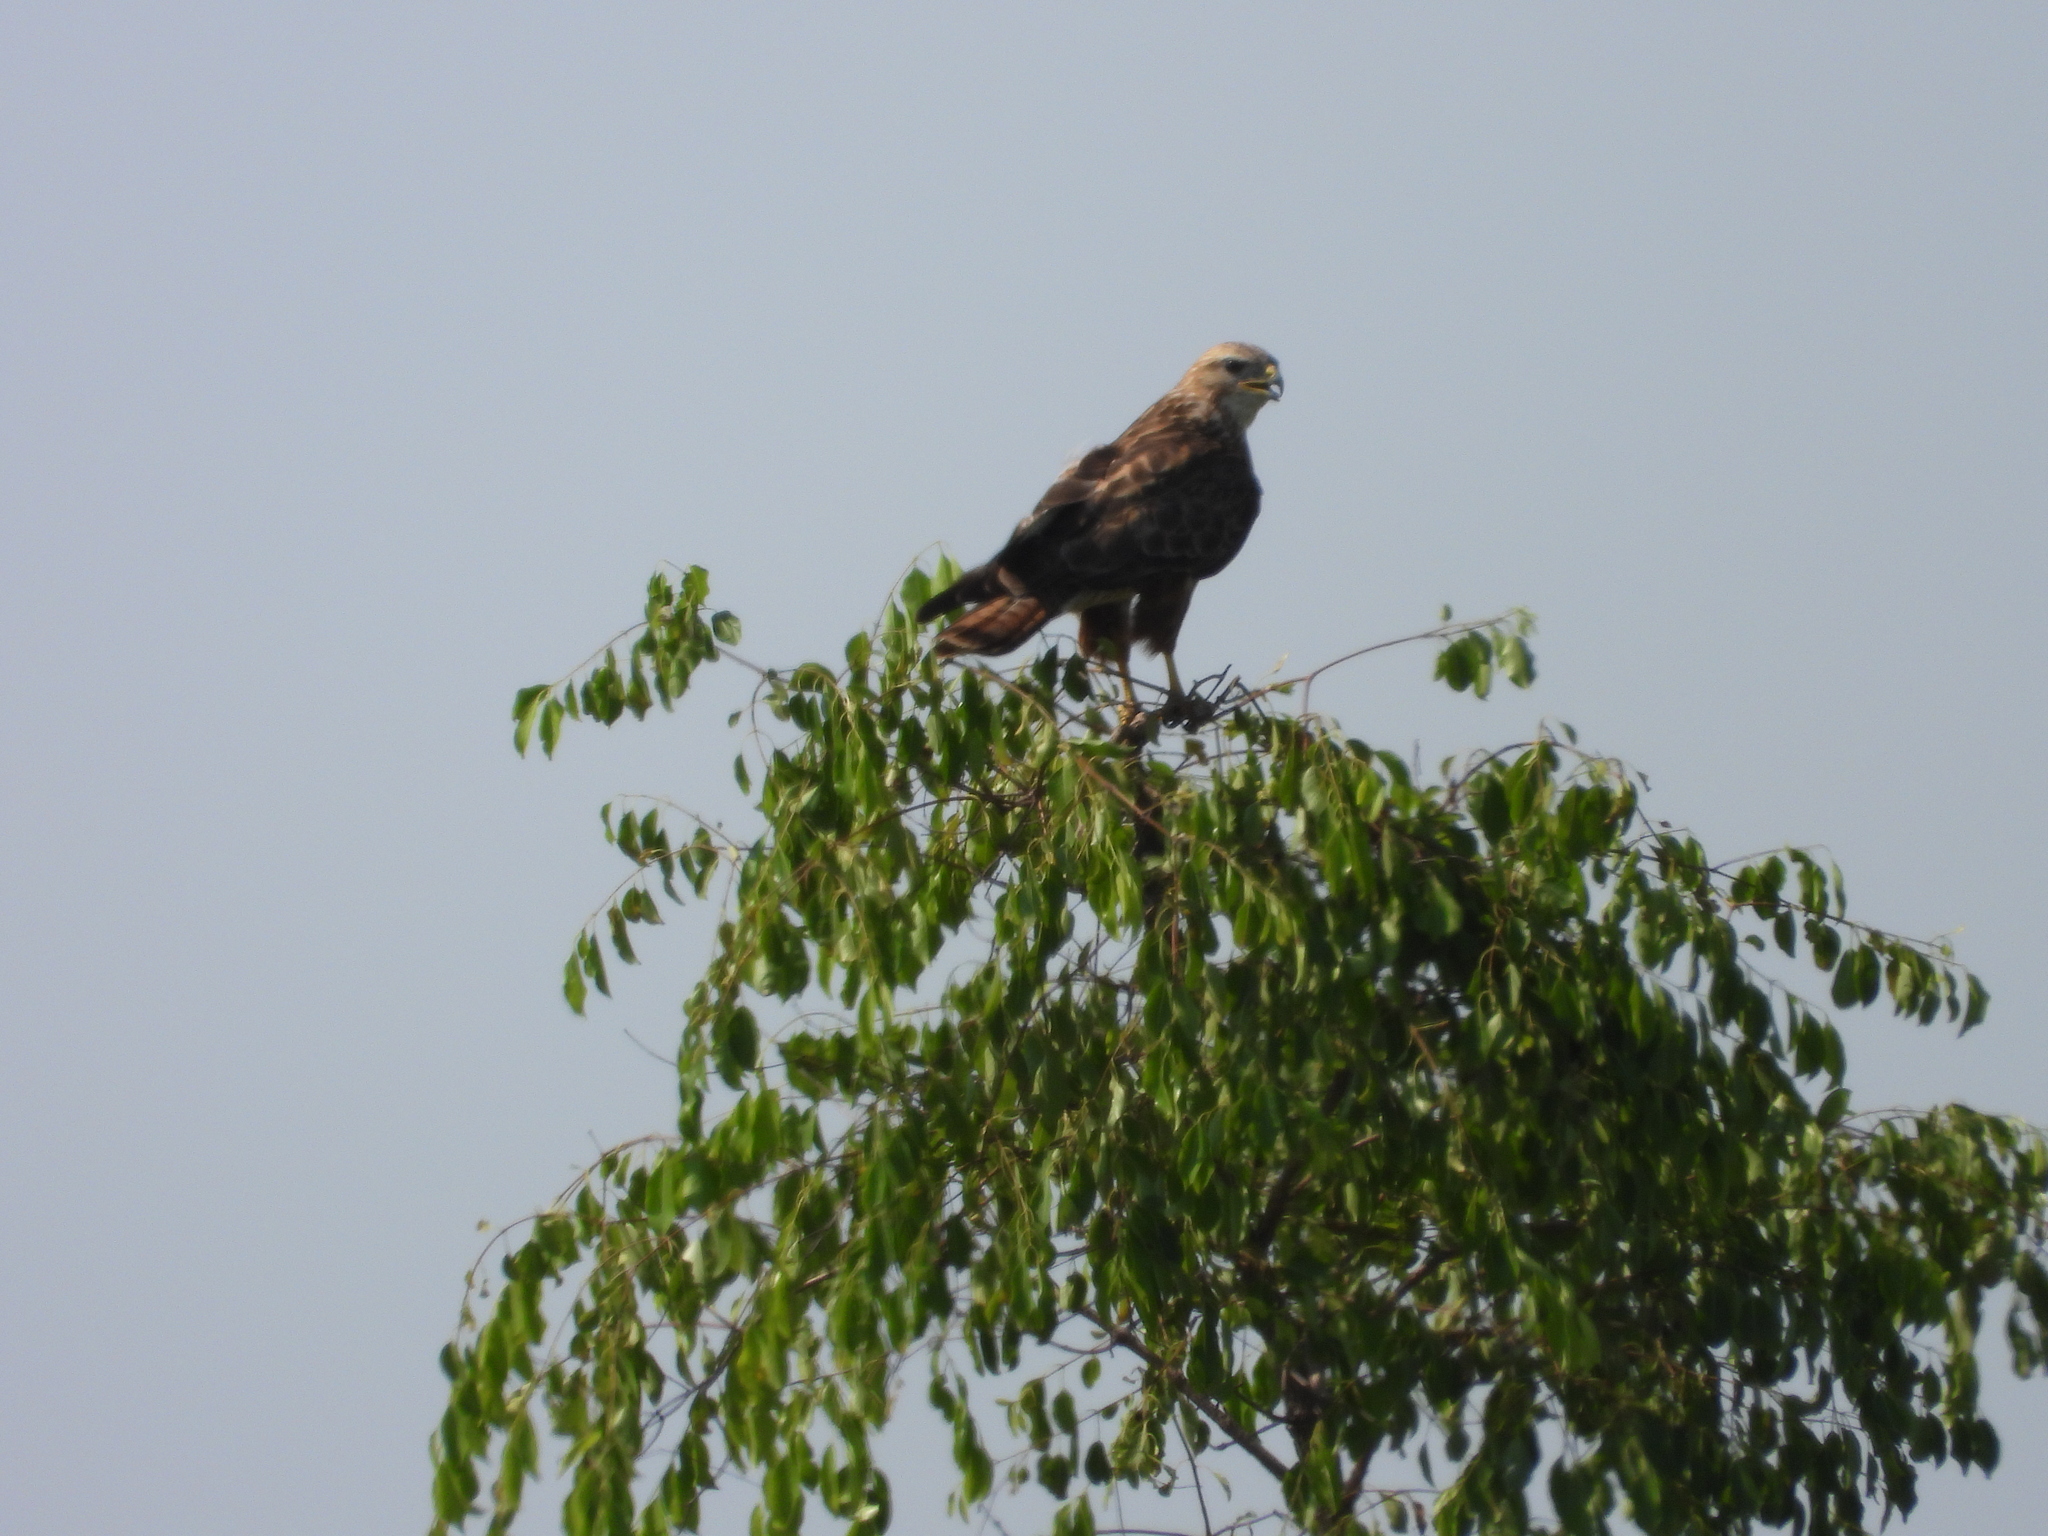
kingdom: Animalia
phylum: Chordata
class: Aves
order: Accipitriformes
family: Accipitridae
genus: Buteo
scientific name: Buteo buteo
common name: Common buzzard
